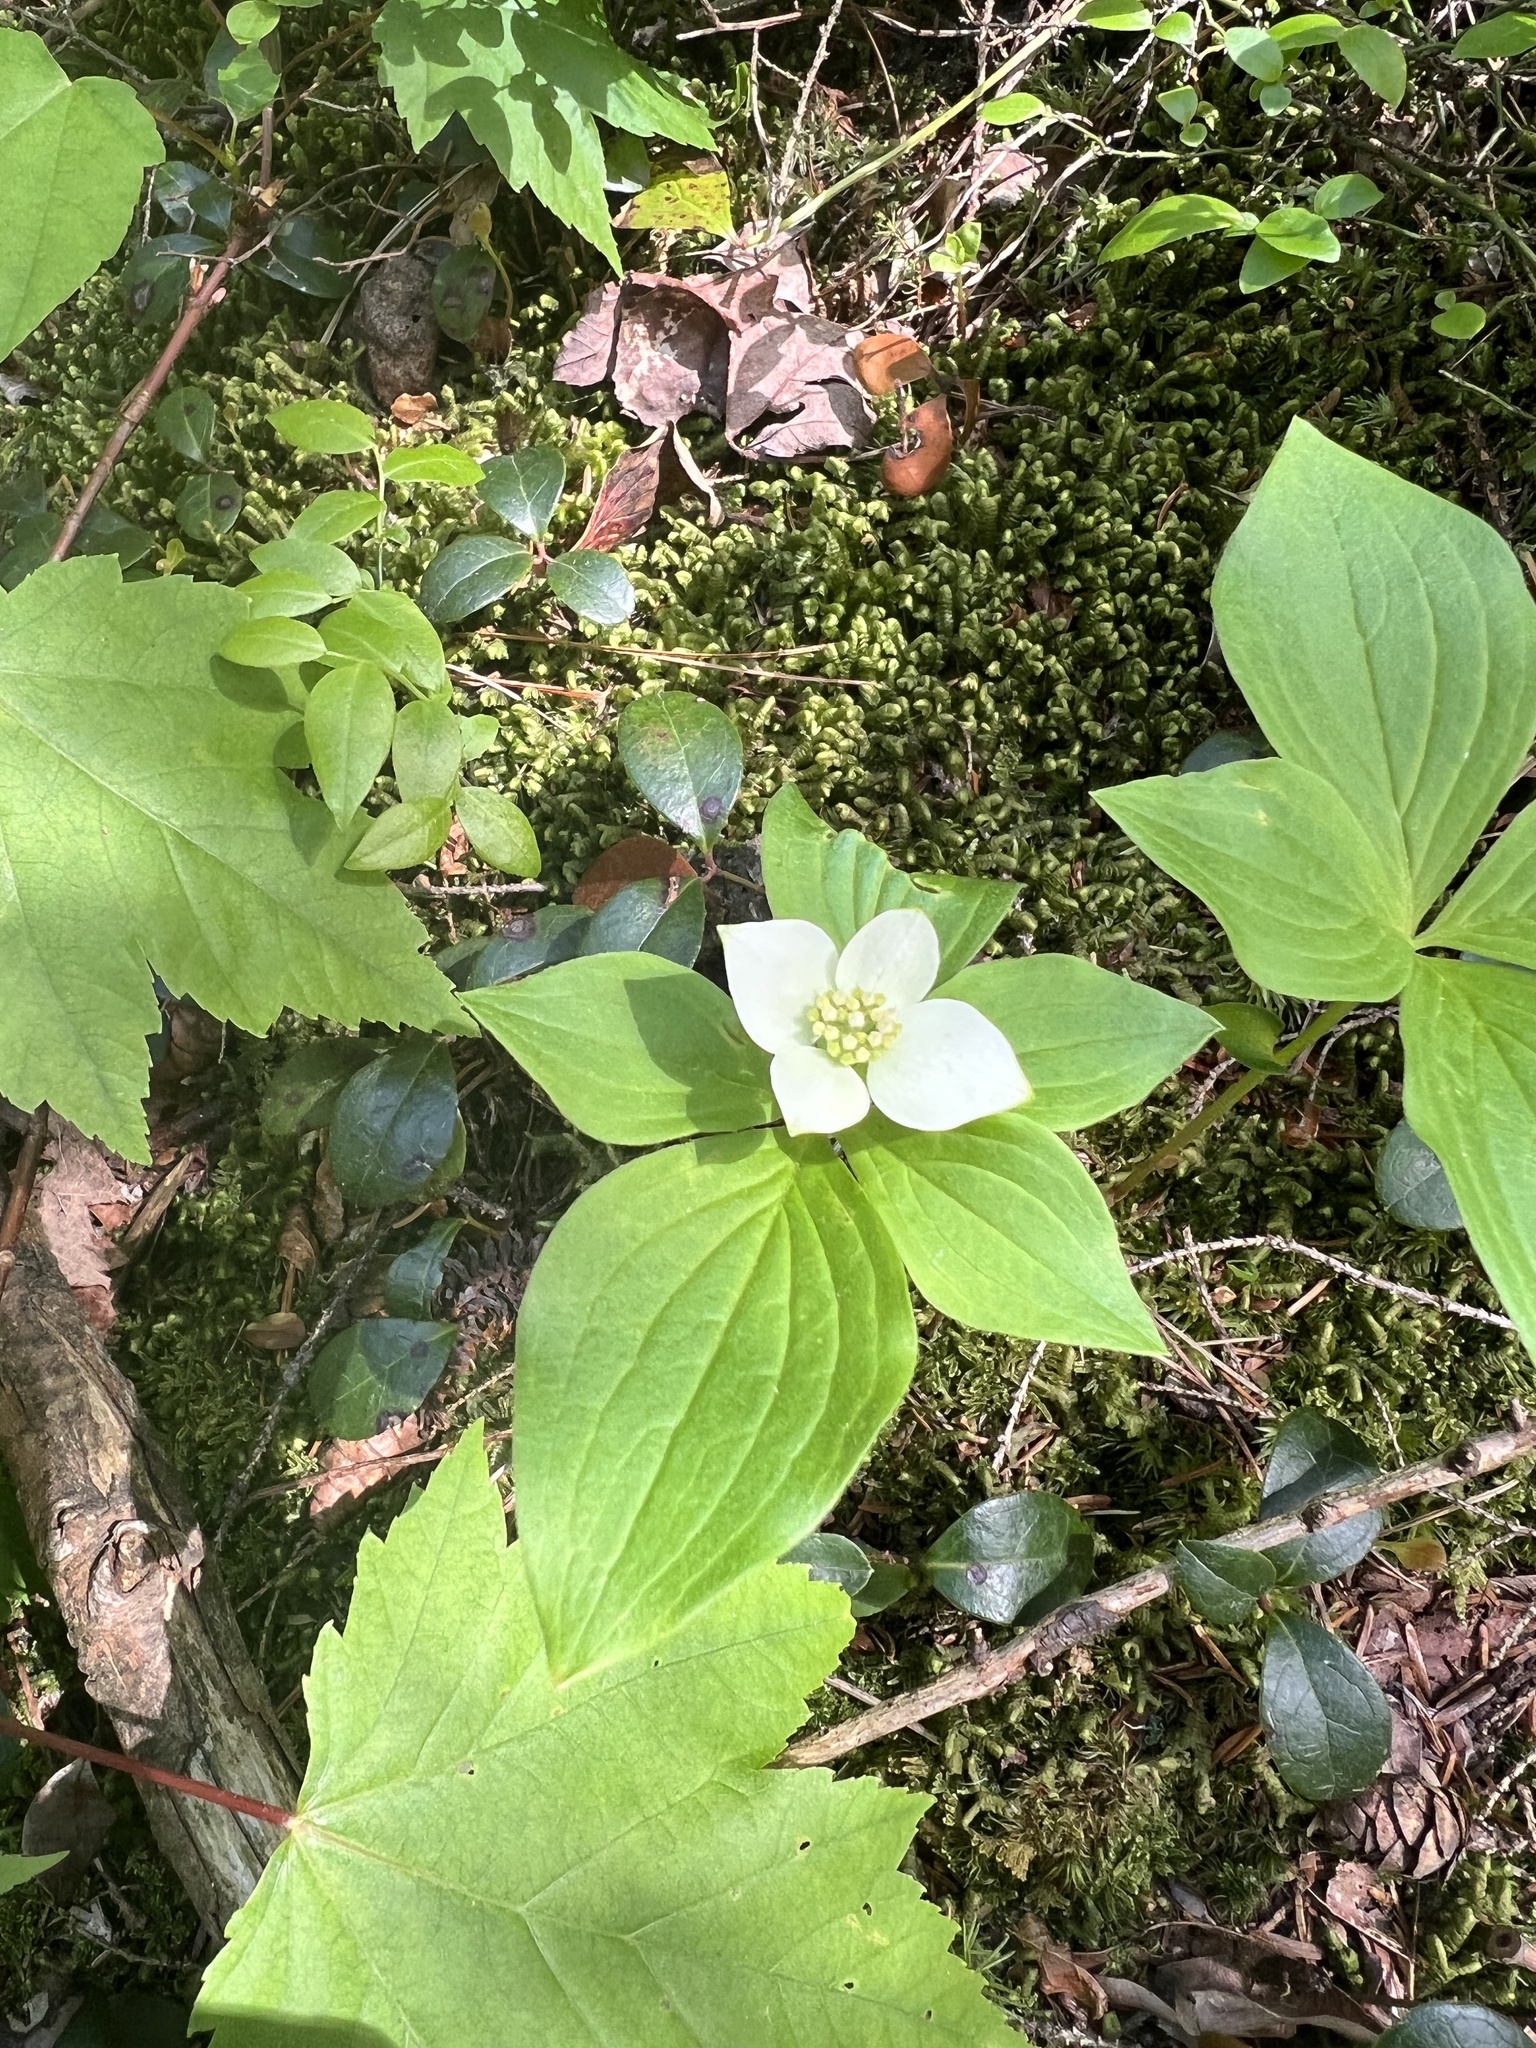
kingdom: Plantae
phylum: Tracheophyta
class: Magnoliopsida
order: Cornales
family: Cornaceae
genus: Cornus
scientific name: Cornus canadensis
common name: Creeping dogwood
